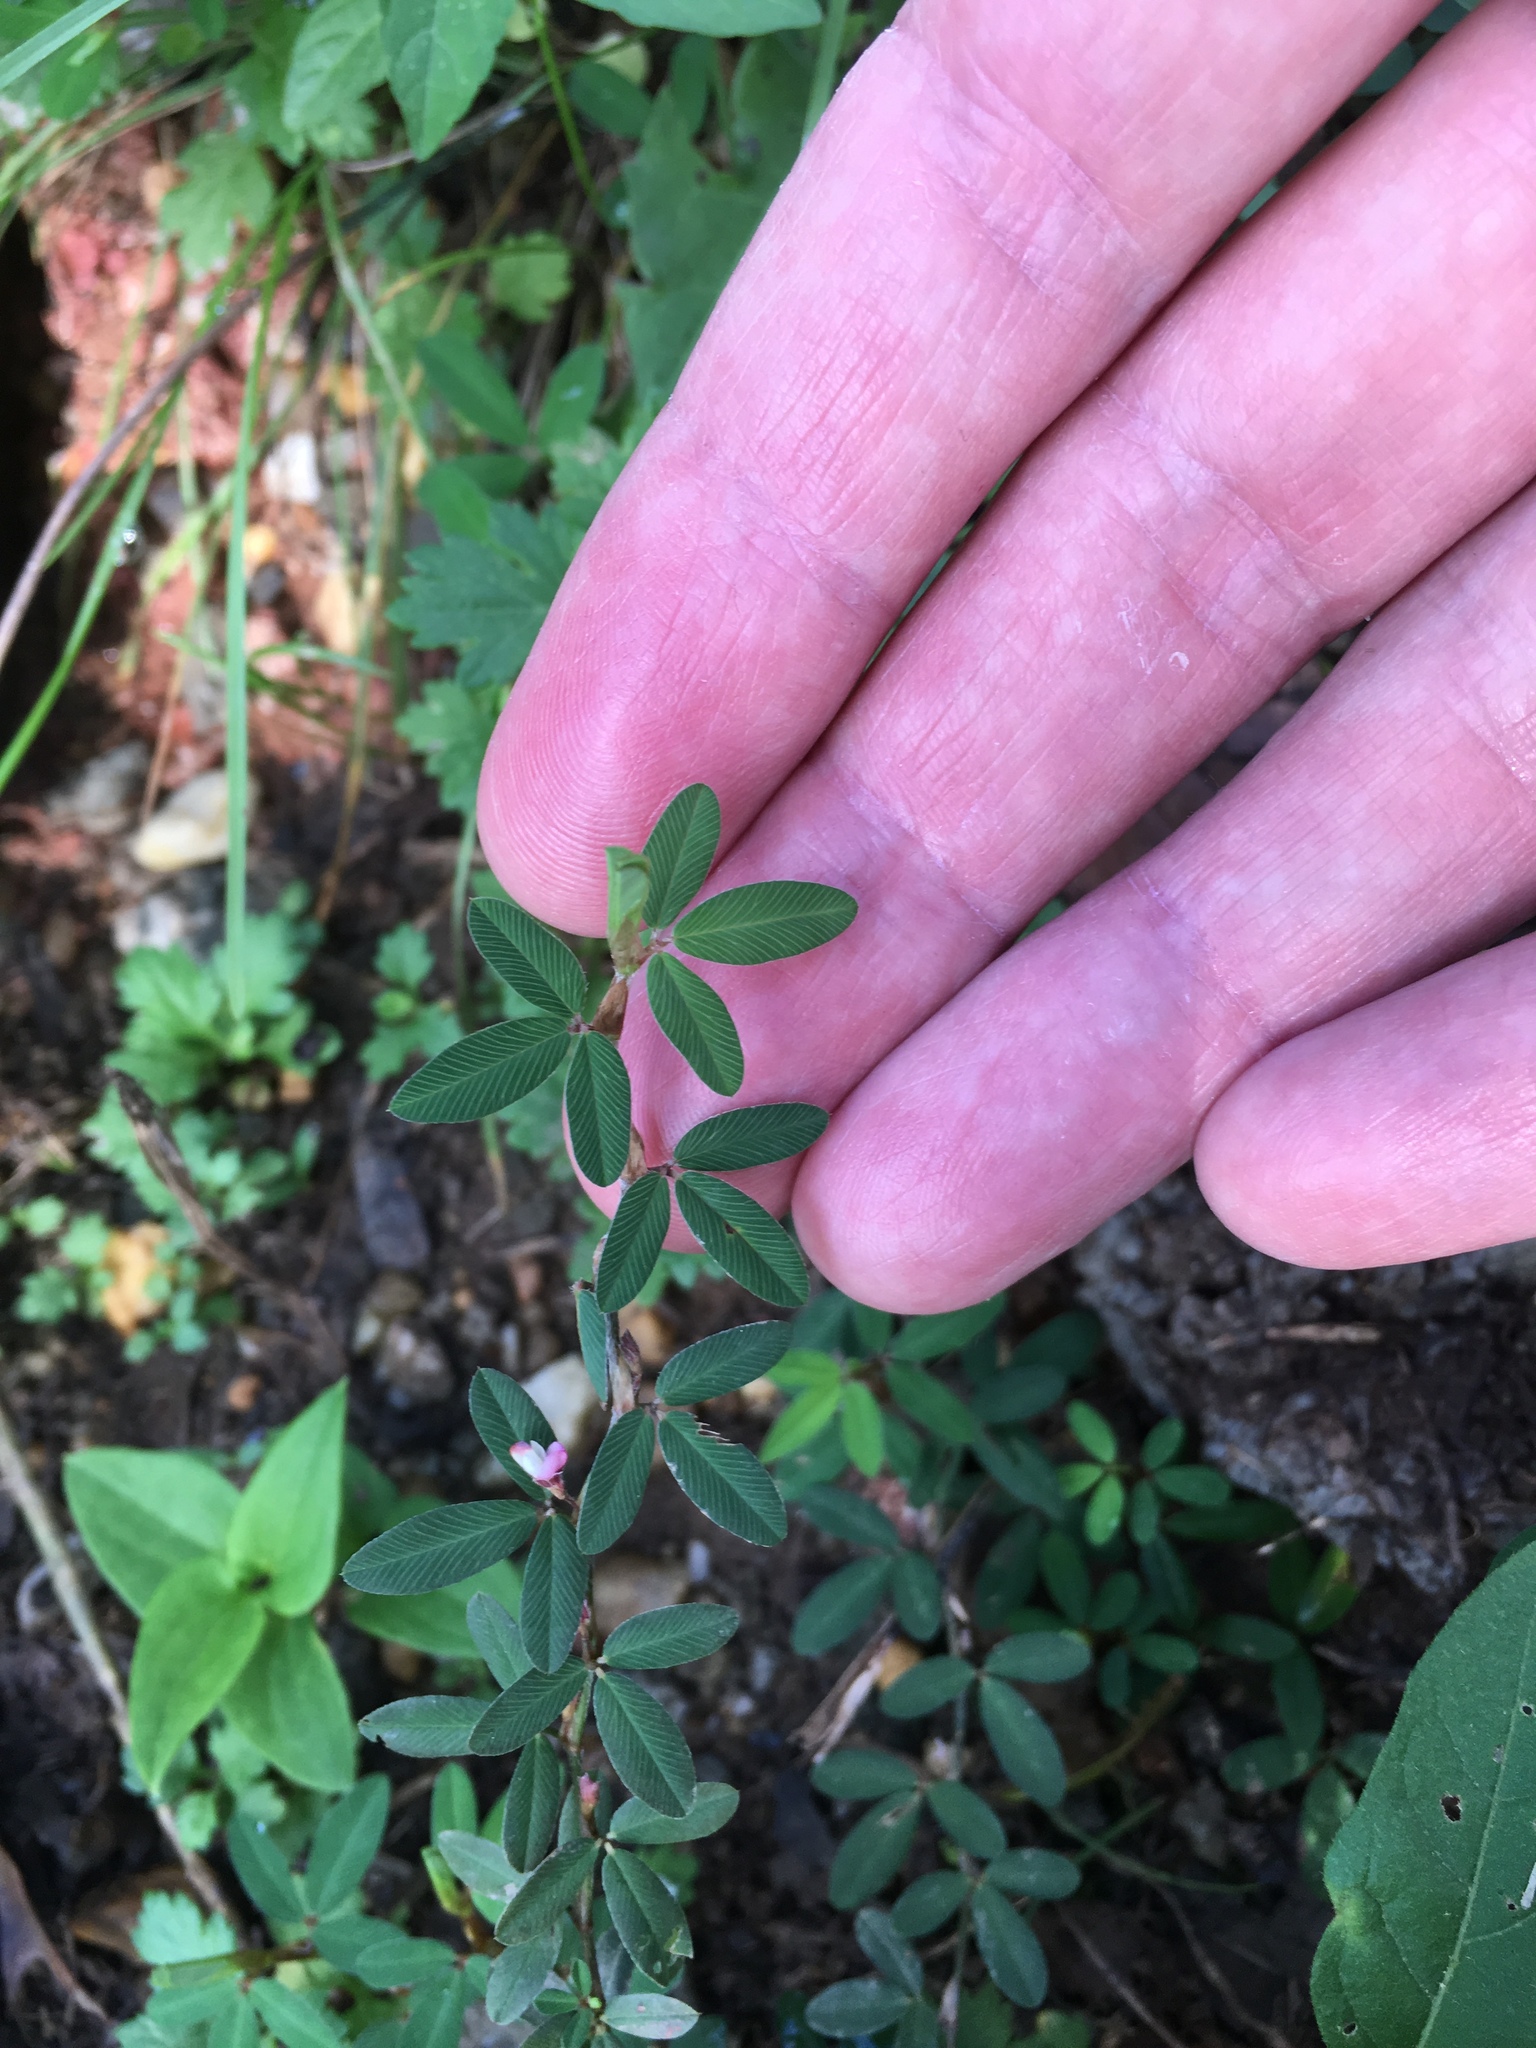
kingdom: Plantae
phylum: Tracheophyta
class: Magnoliopsida
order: Fabales
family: Fabaceae
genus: Kummerowia
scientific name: Kummerowia striata
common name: Japanese clover
